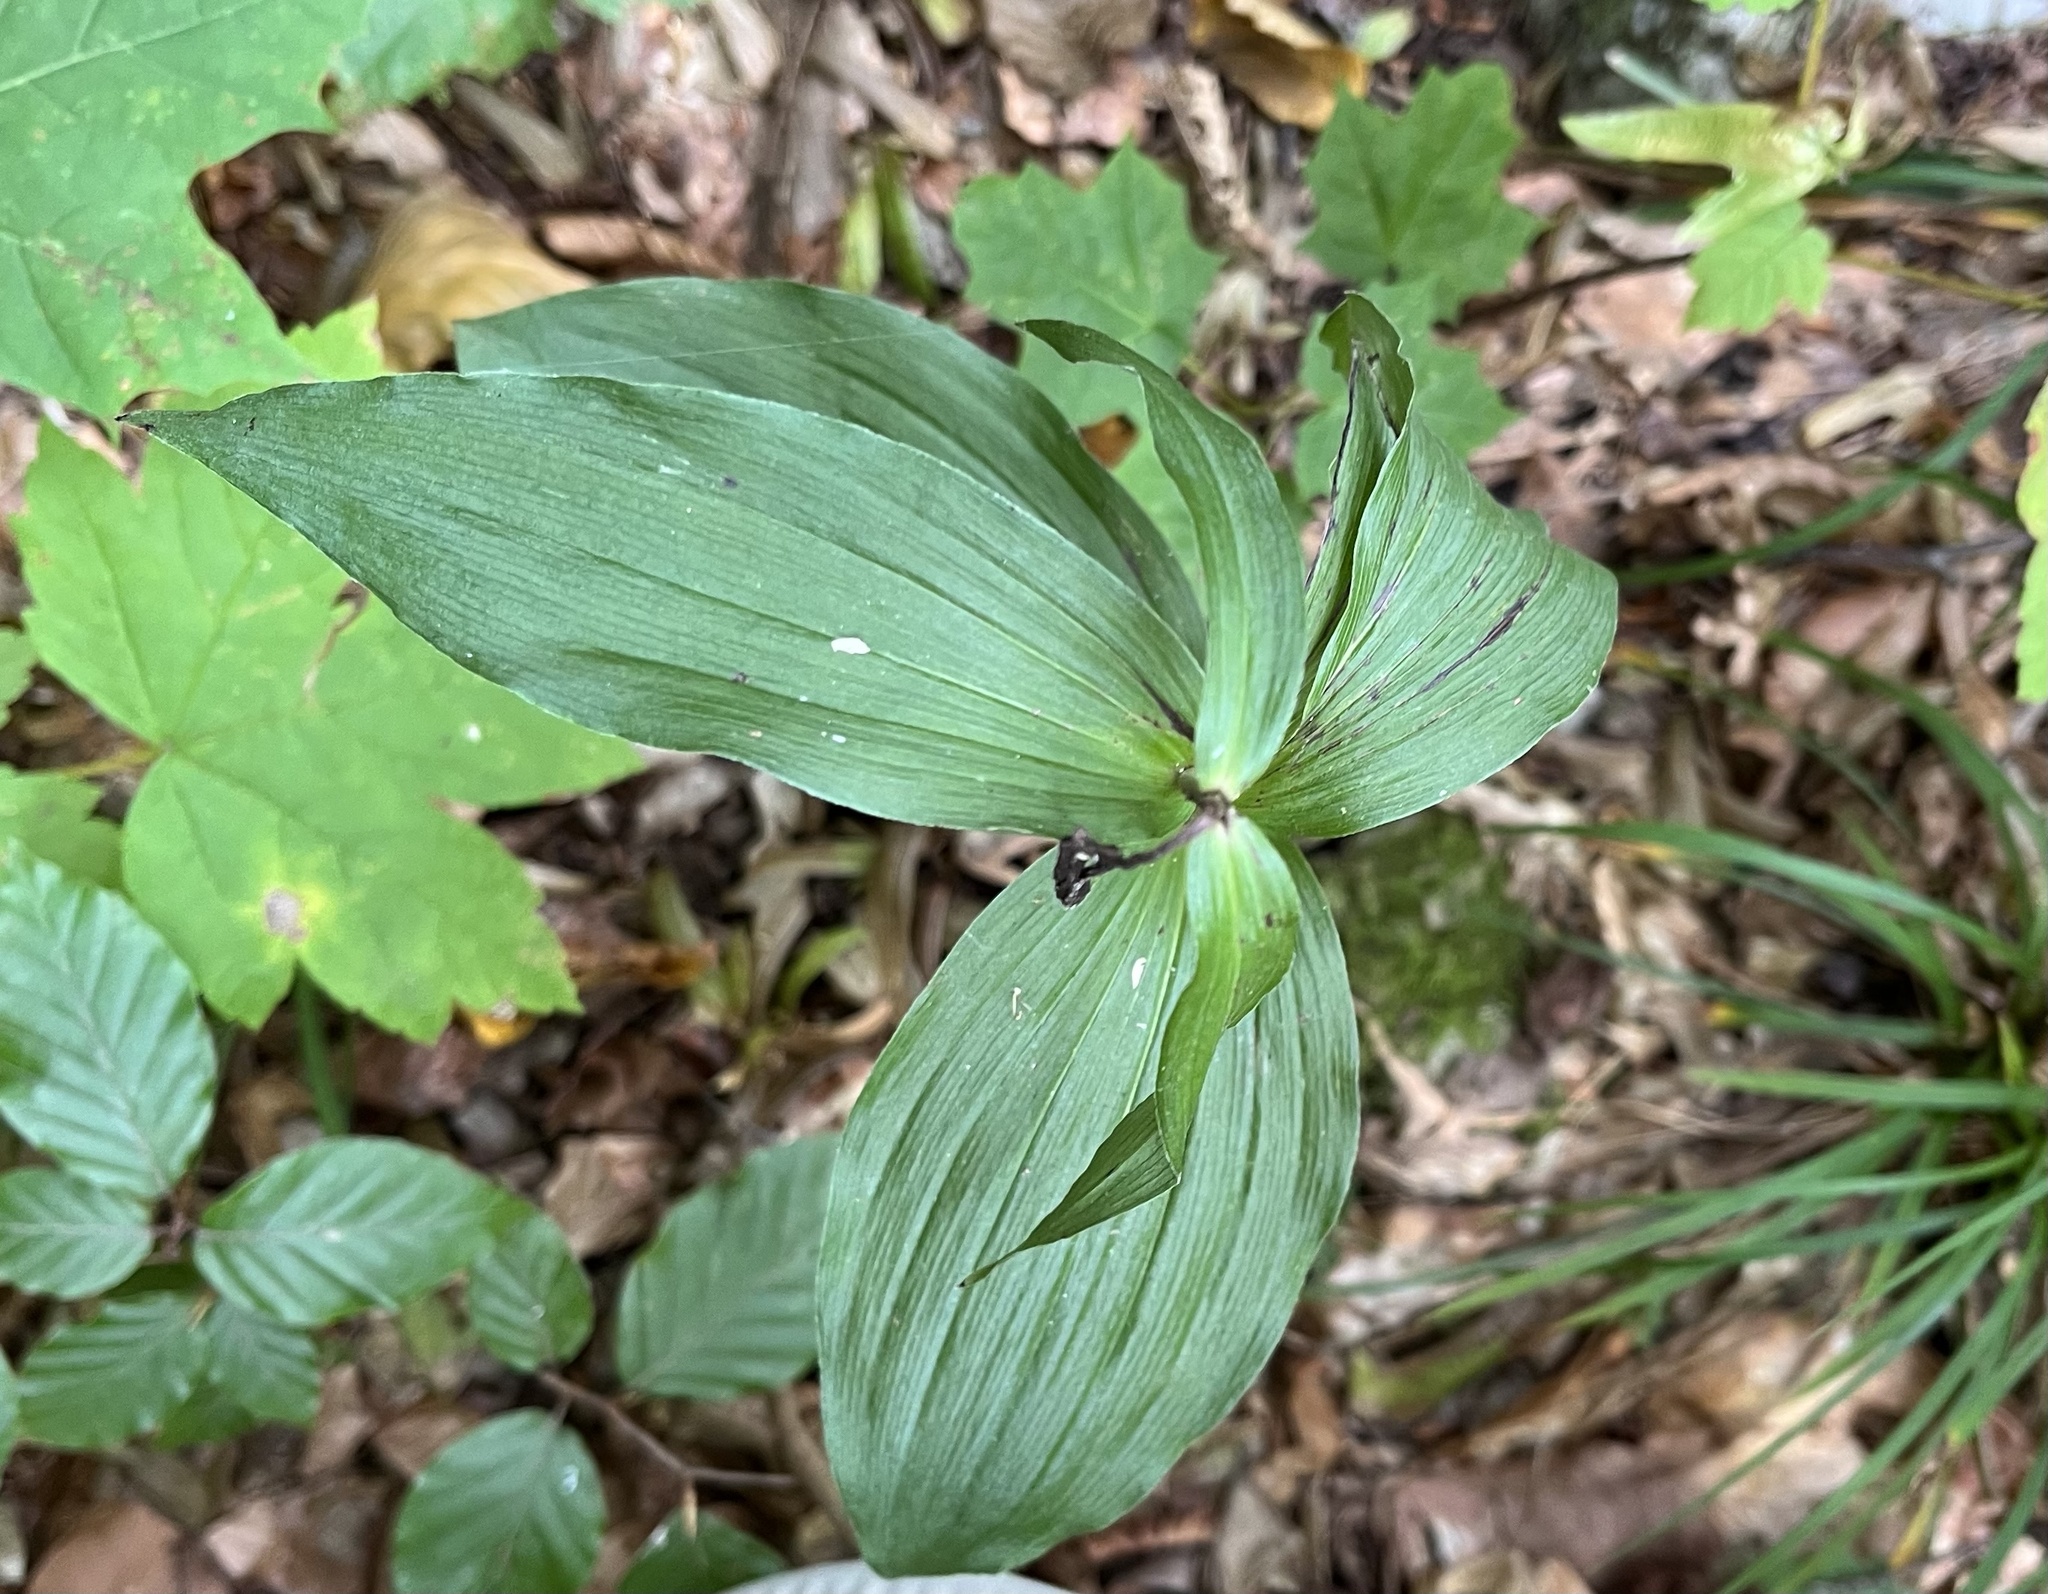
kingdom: Plantae
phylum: Tracheophyta
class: Liliopsida
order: Asparagales
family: Orchidaceae
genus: Epipactis
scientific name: Epipactis helleborine
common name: Broad-leaved helleborine
